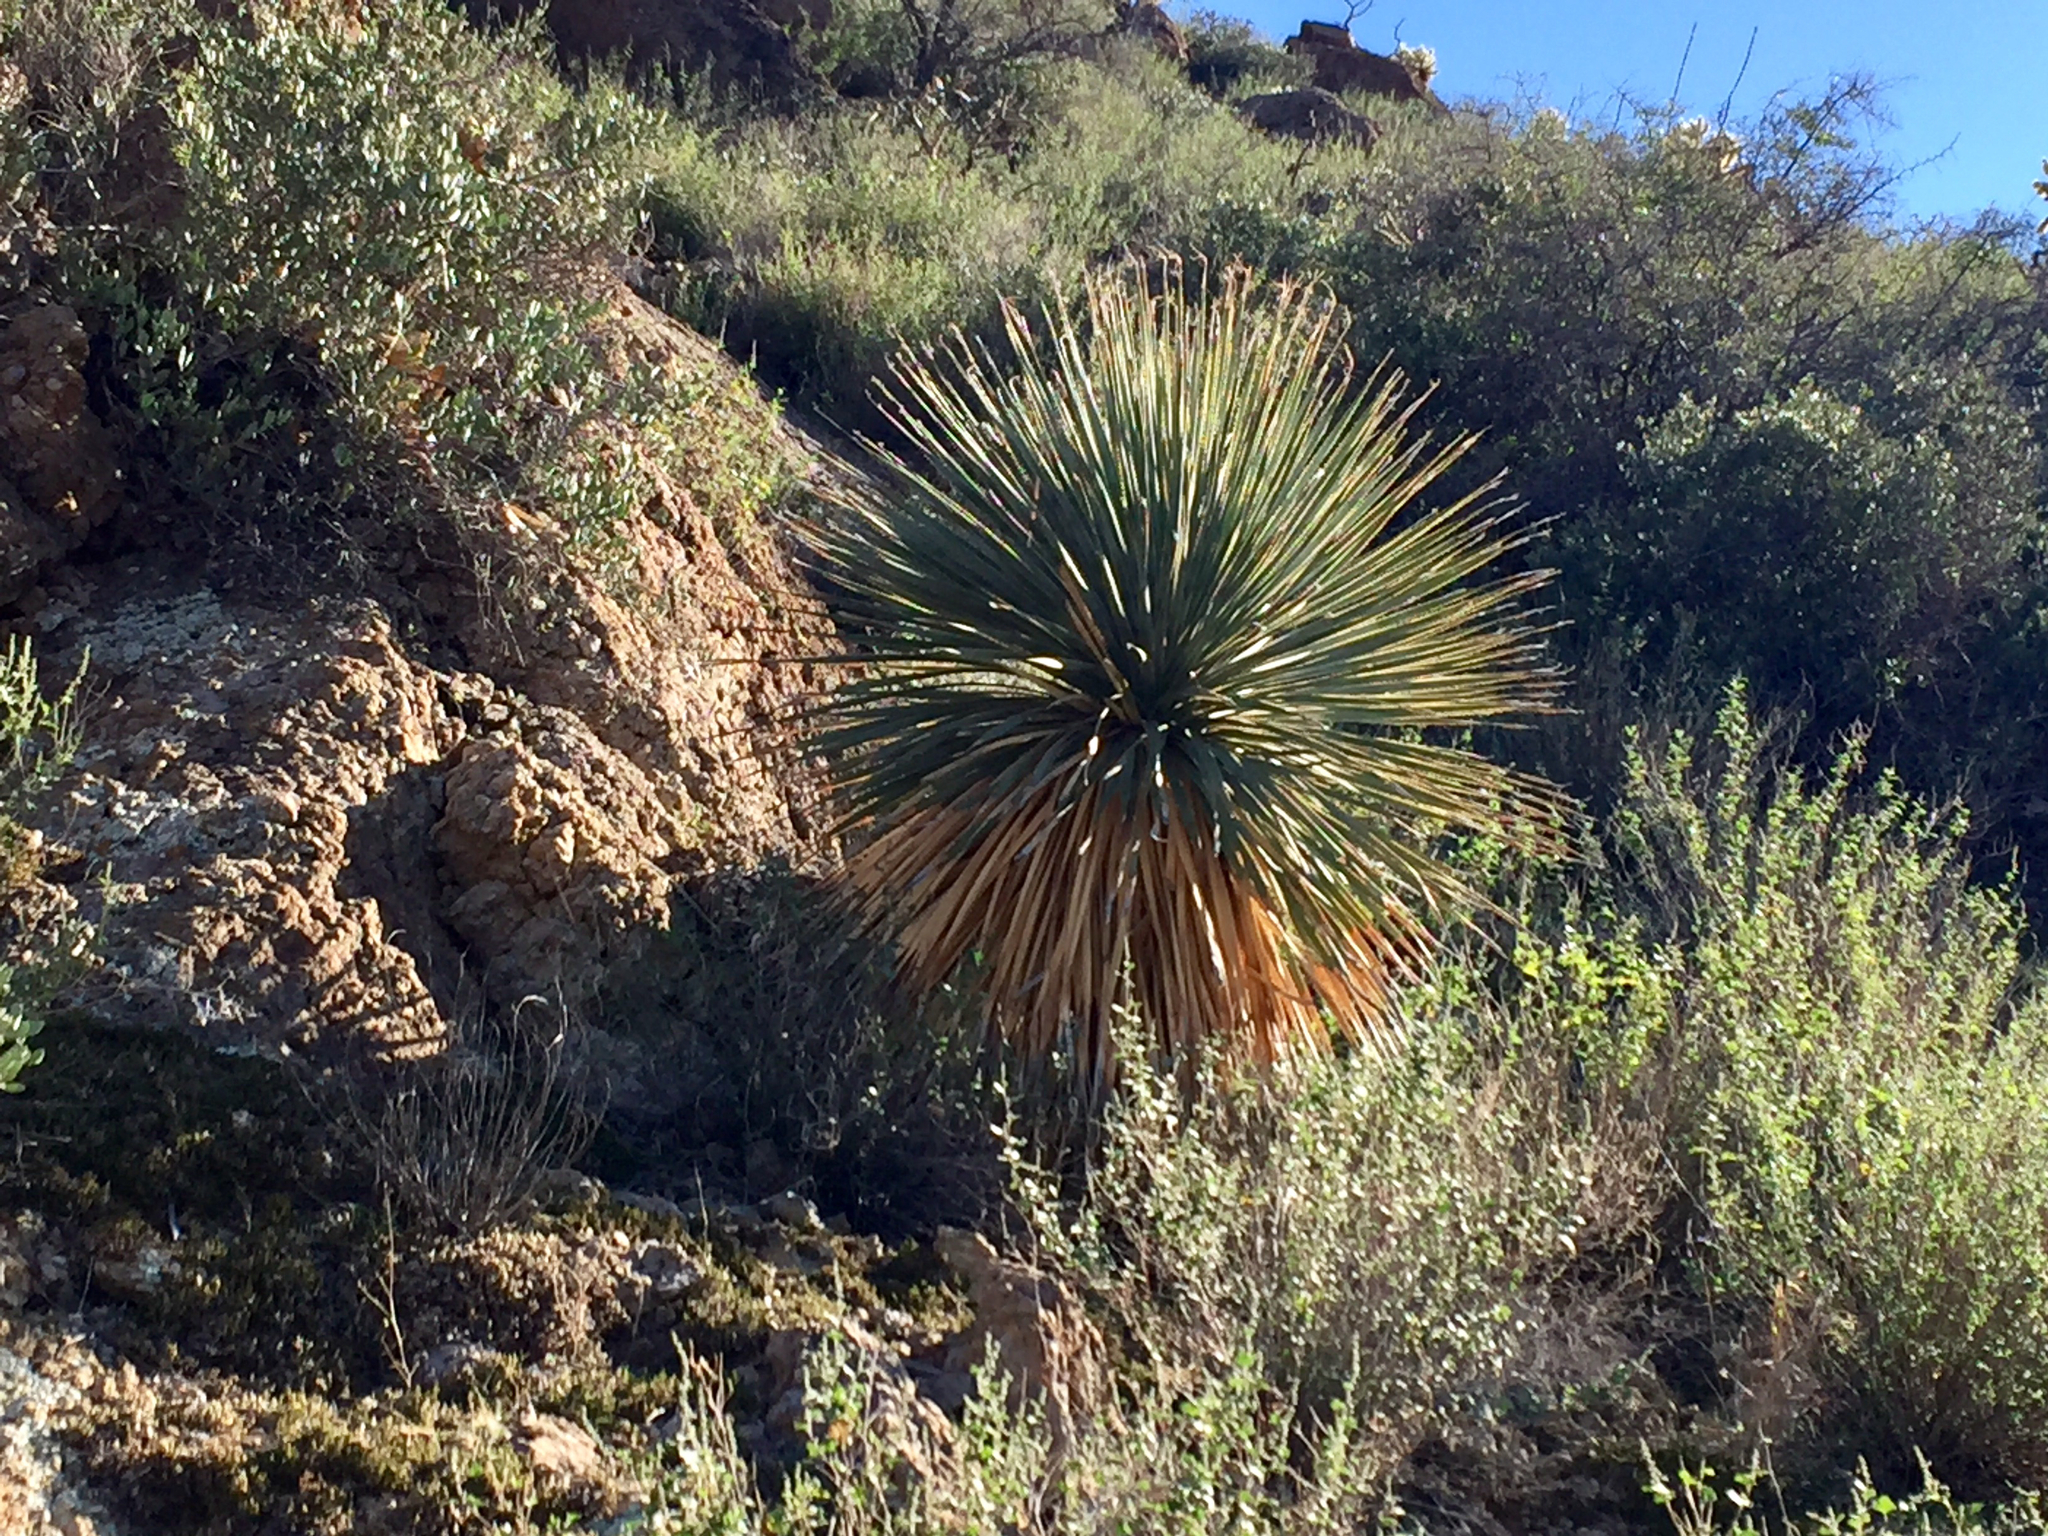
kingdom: Plantae
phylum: Tracheophyta
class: Liliopsida
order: Asparagales
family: Asparagaceae
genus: Dasylirion
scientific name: Dasylirion wheeleri
